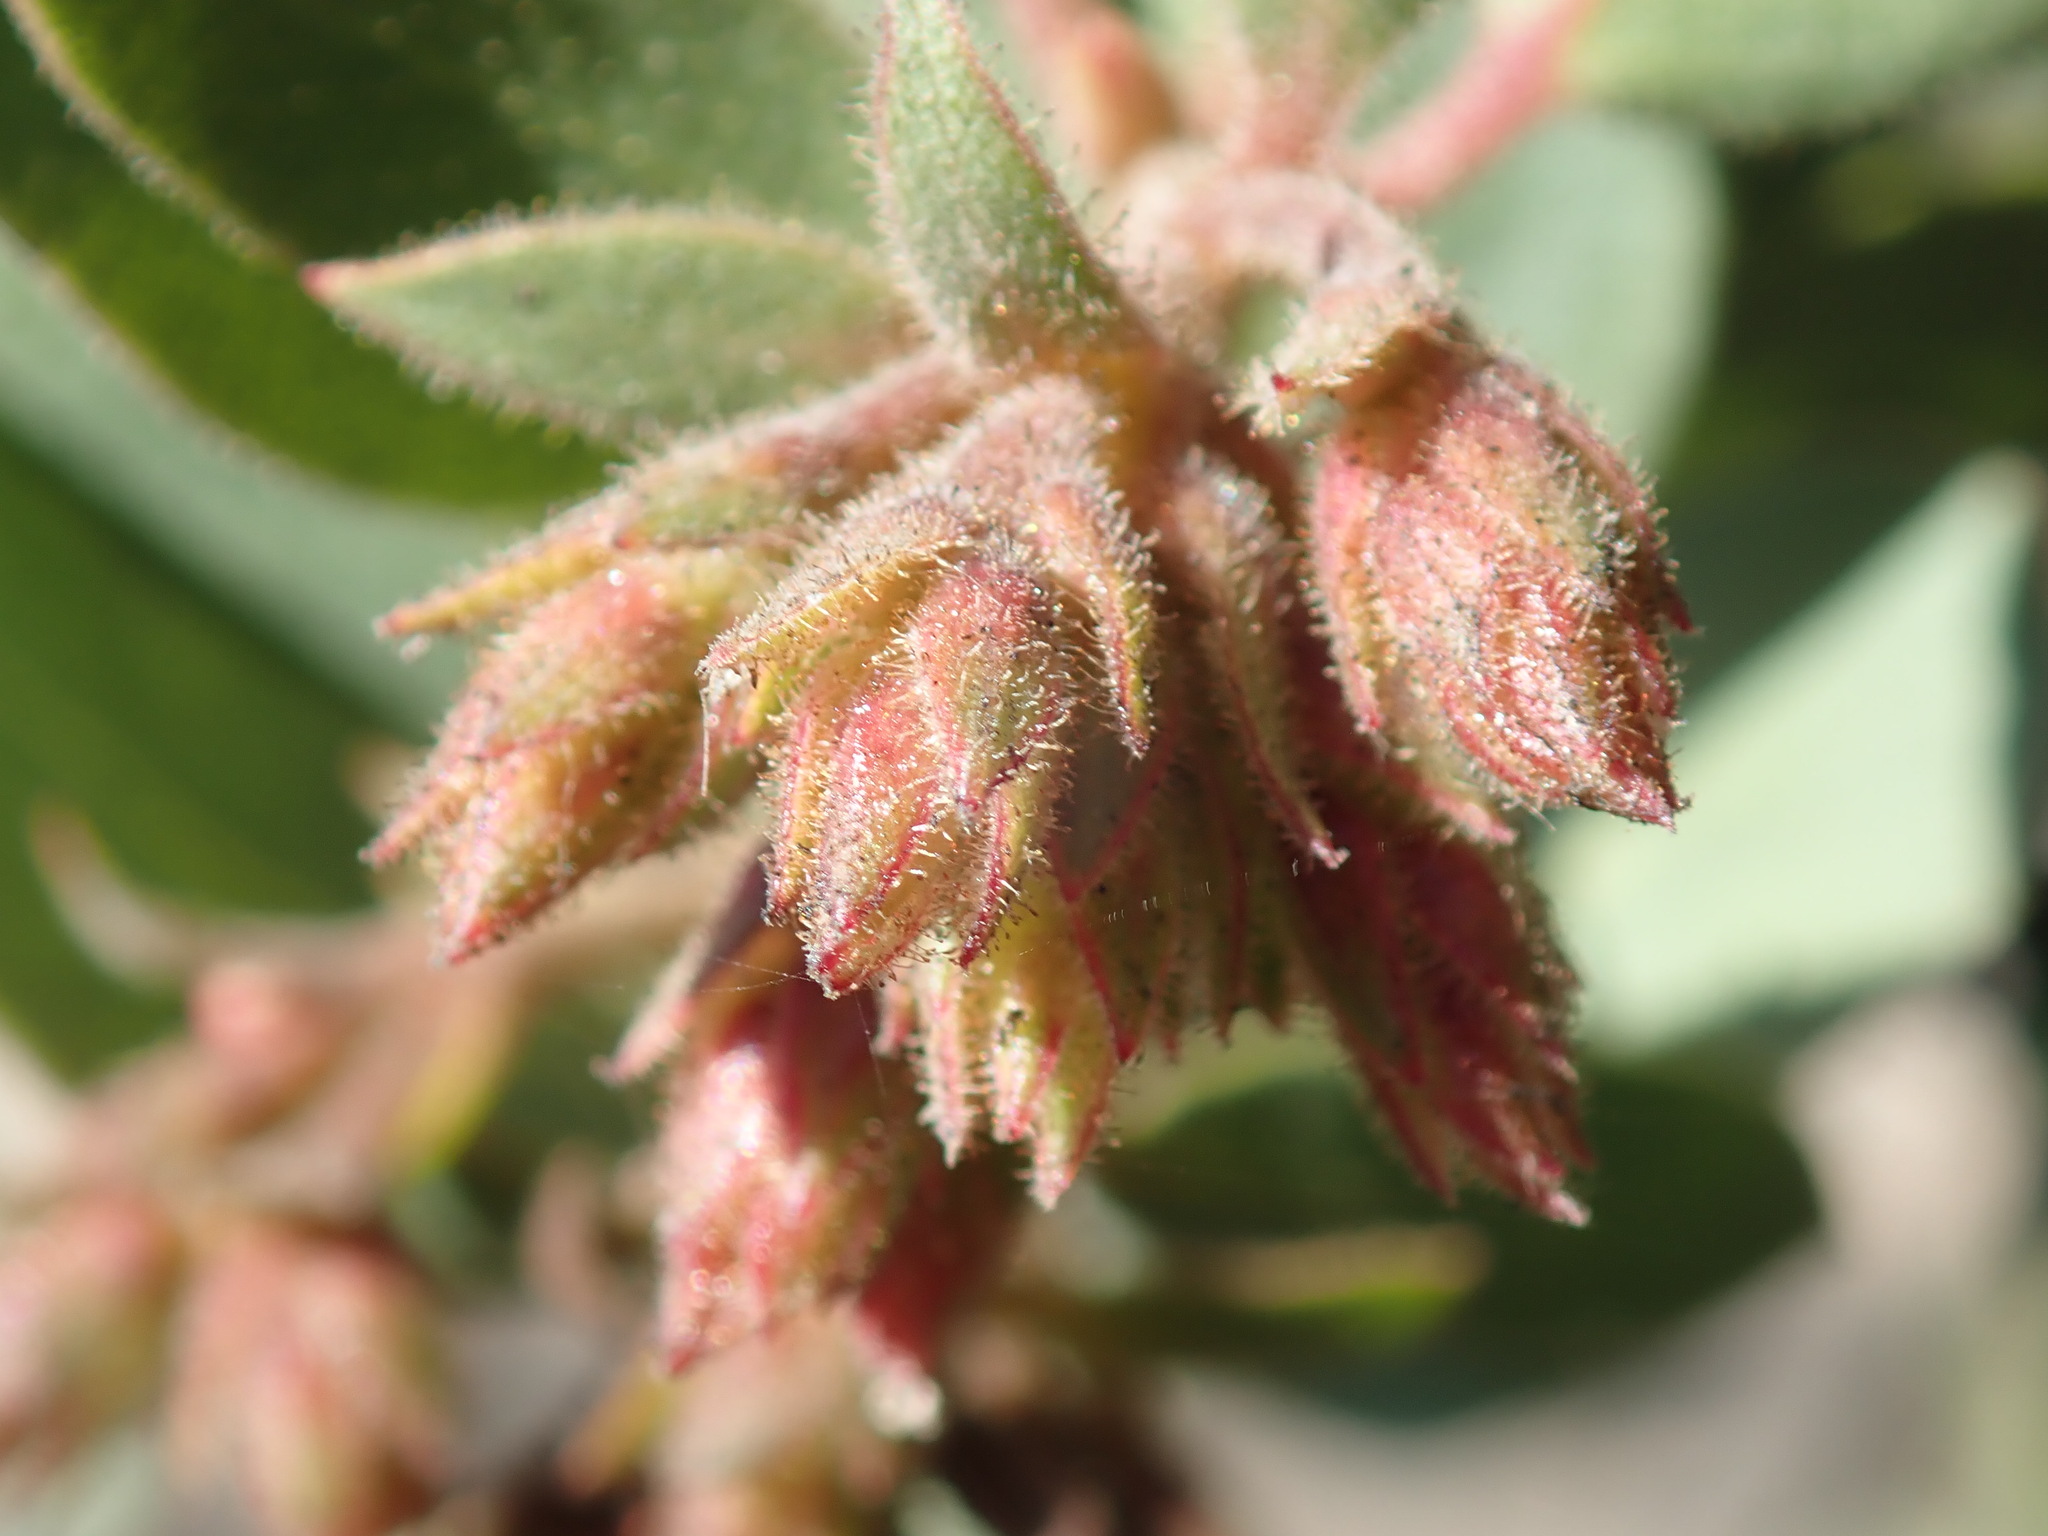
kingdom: Plantae
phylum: Tracheophyta
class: Magnoliopsida
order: Ericales
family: Ericaceae
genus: Arctostaphylos
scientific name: Arctostaphylos montereyensis
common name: Monterey manzanita
